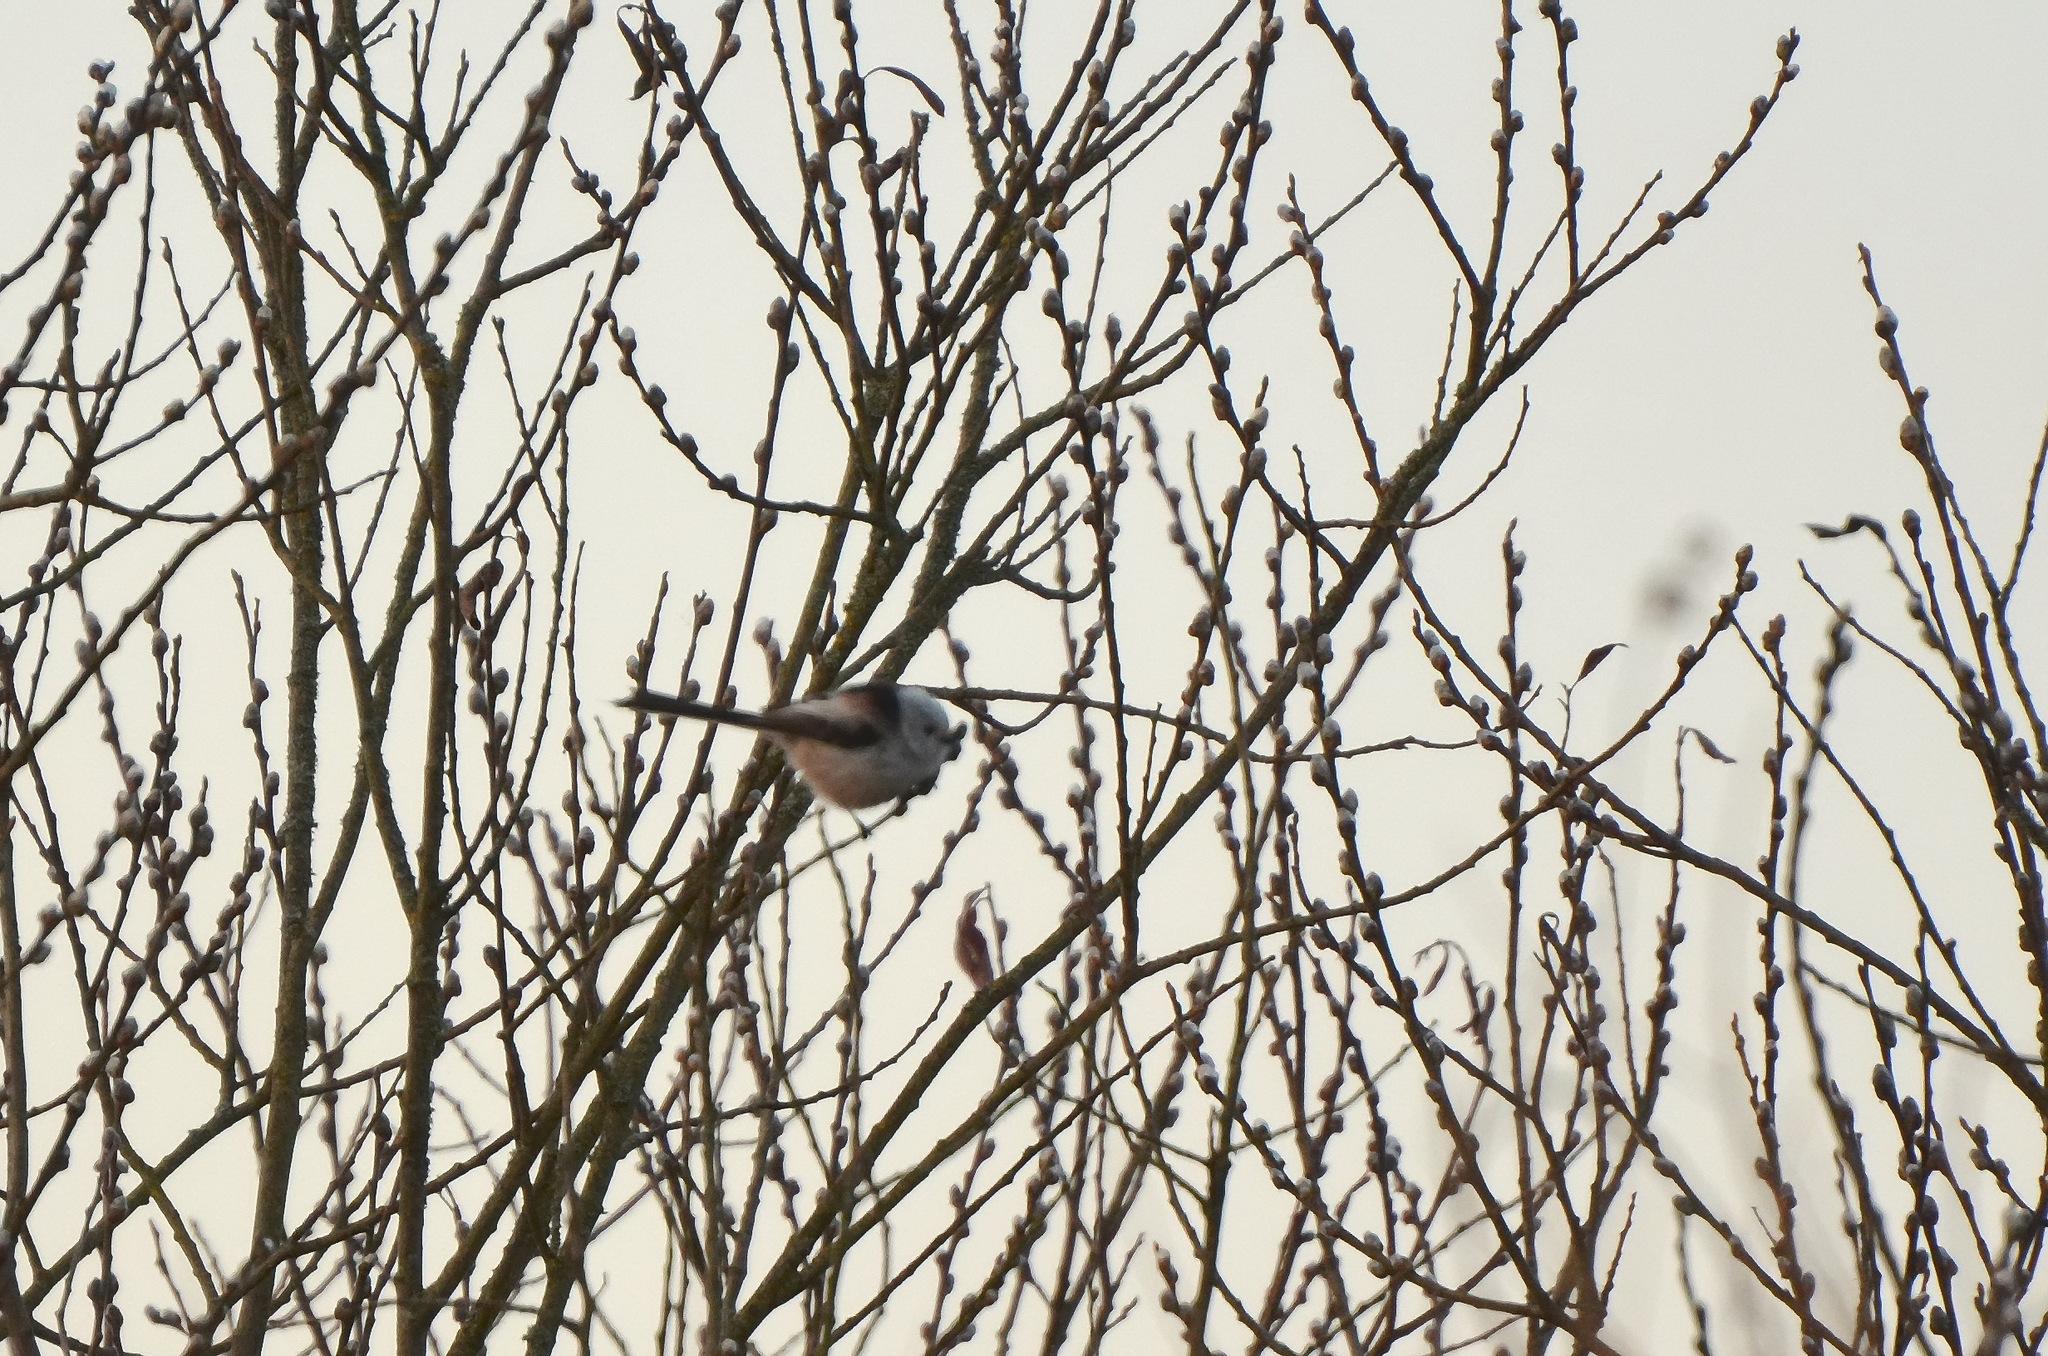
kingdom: Animalia
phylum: Chordata
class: Aves
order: Passeriformes
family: Aegithalidae
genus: Aegithalos
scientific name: Aegithalos caudatus
